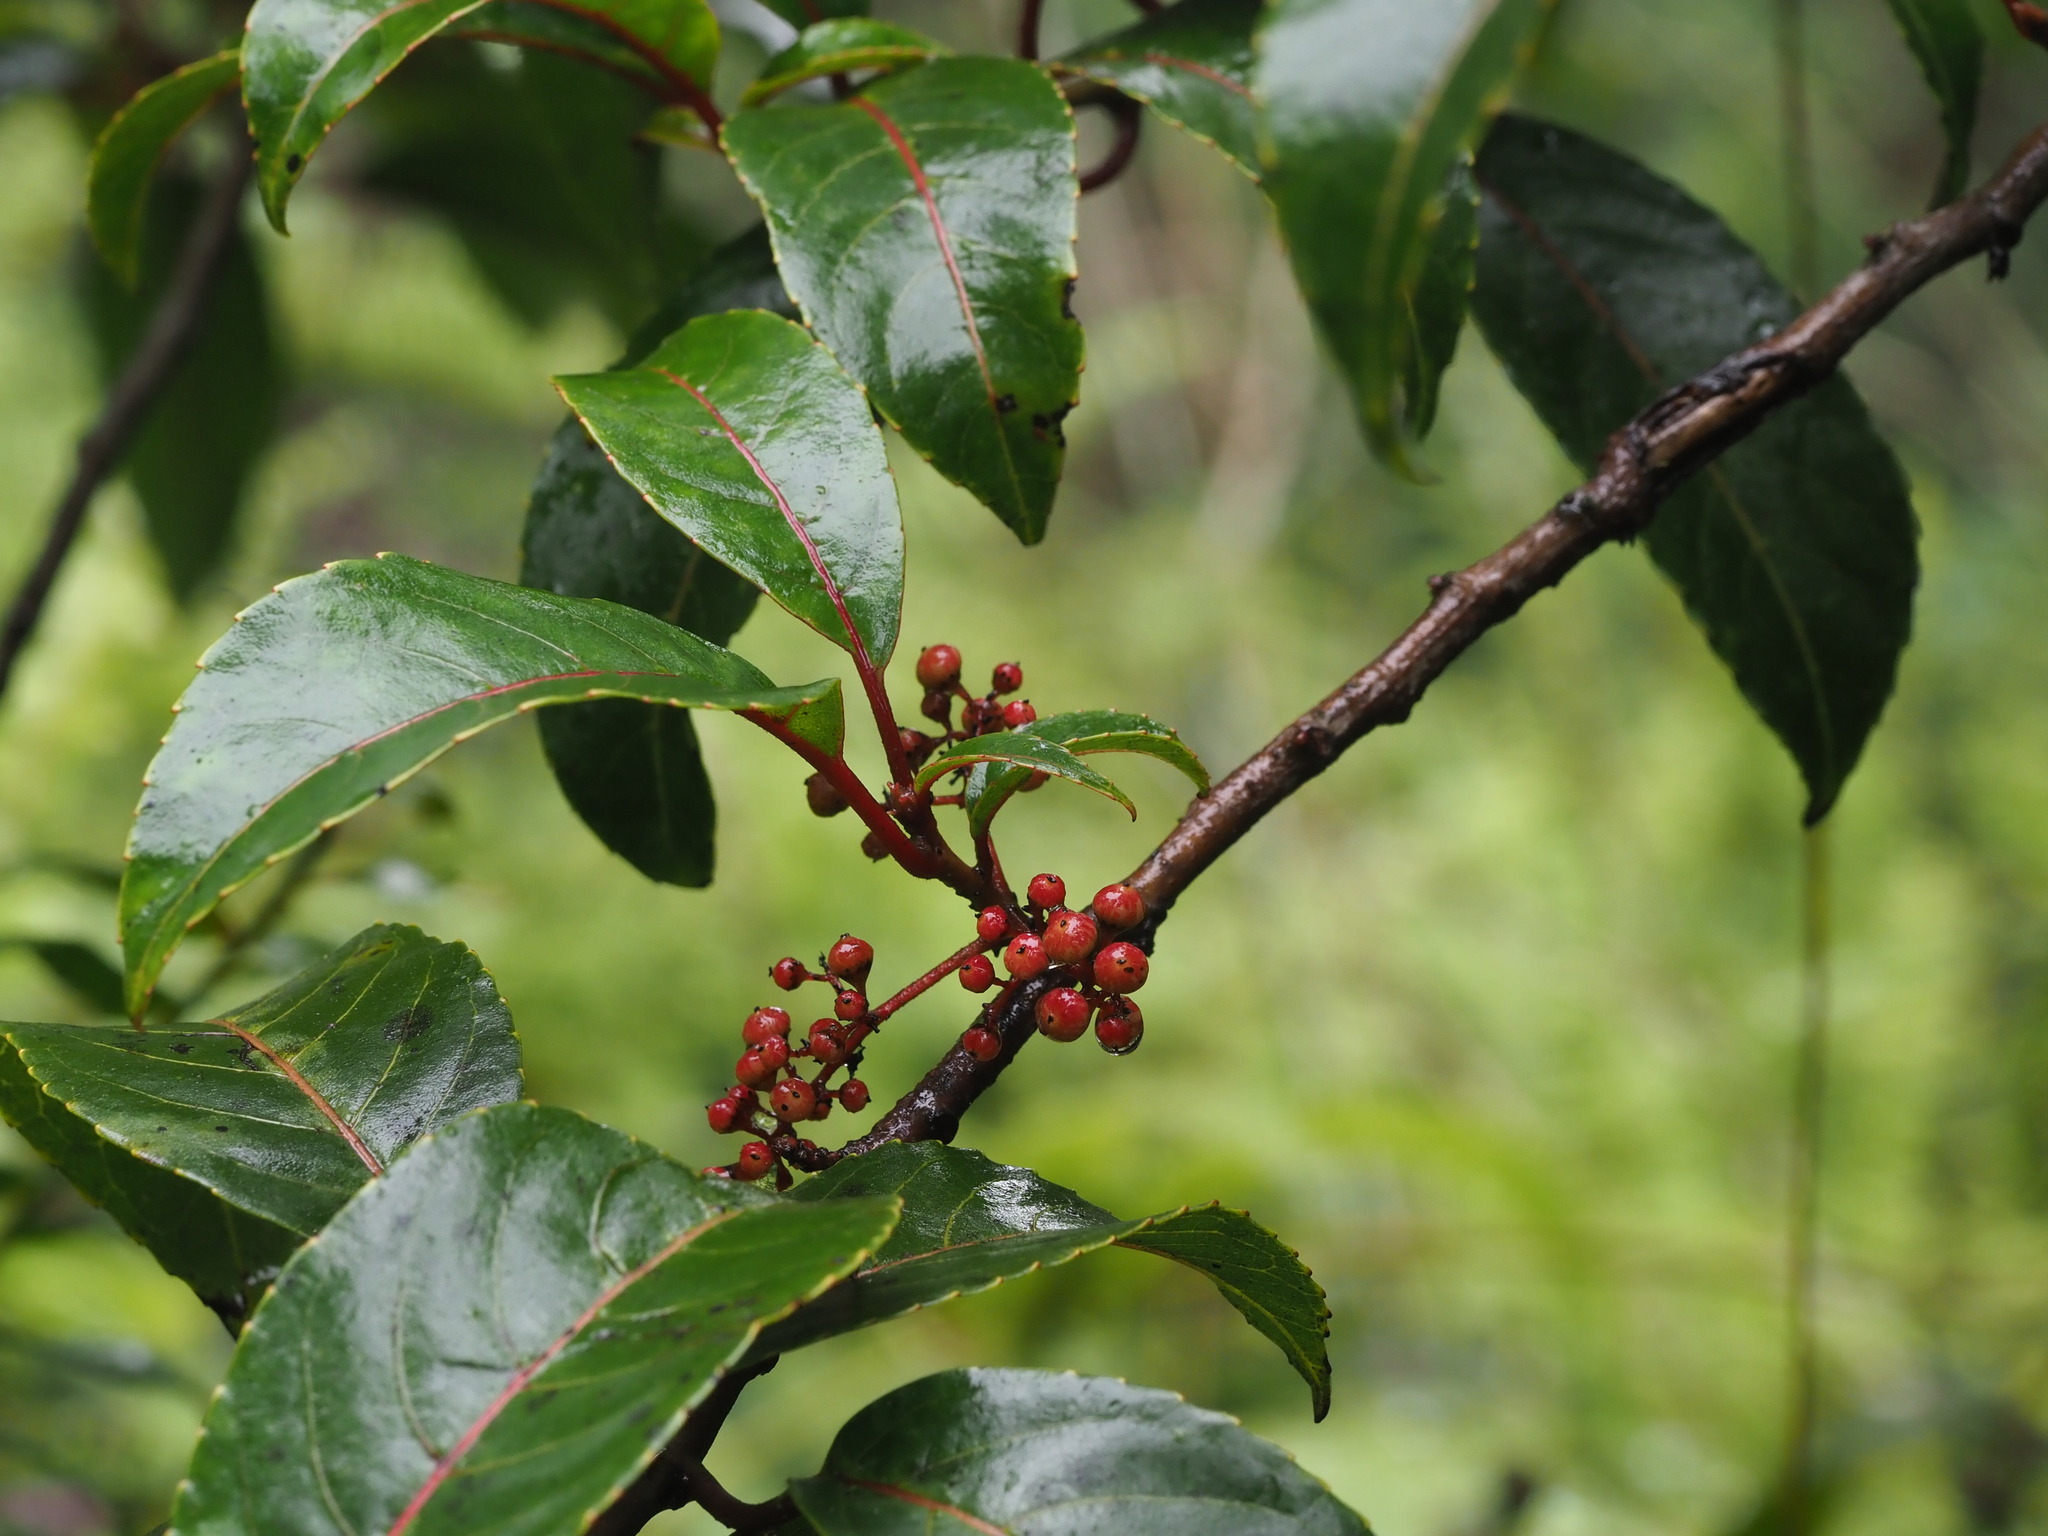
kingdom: Plantae
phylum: Tracheophyta
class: Magnoliopsida
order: Huerteales
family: Dipentodontaceae
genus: Perrottetia
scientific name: Perrottetia sandwicensis
